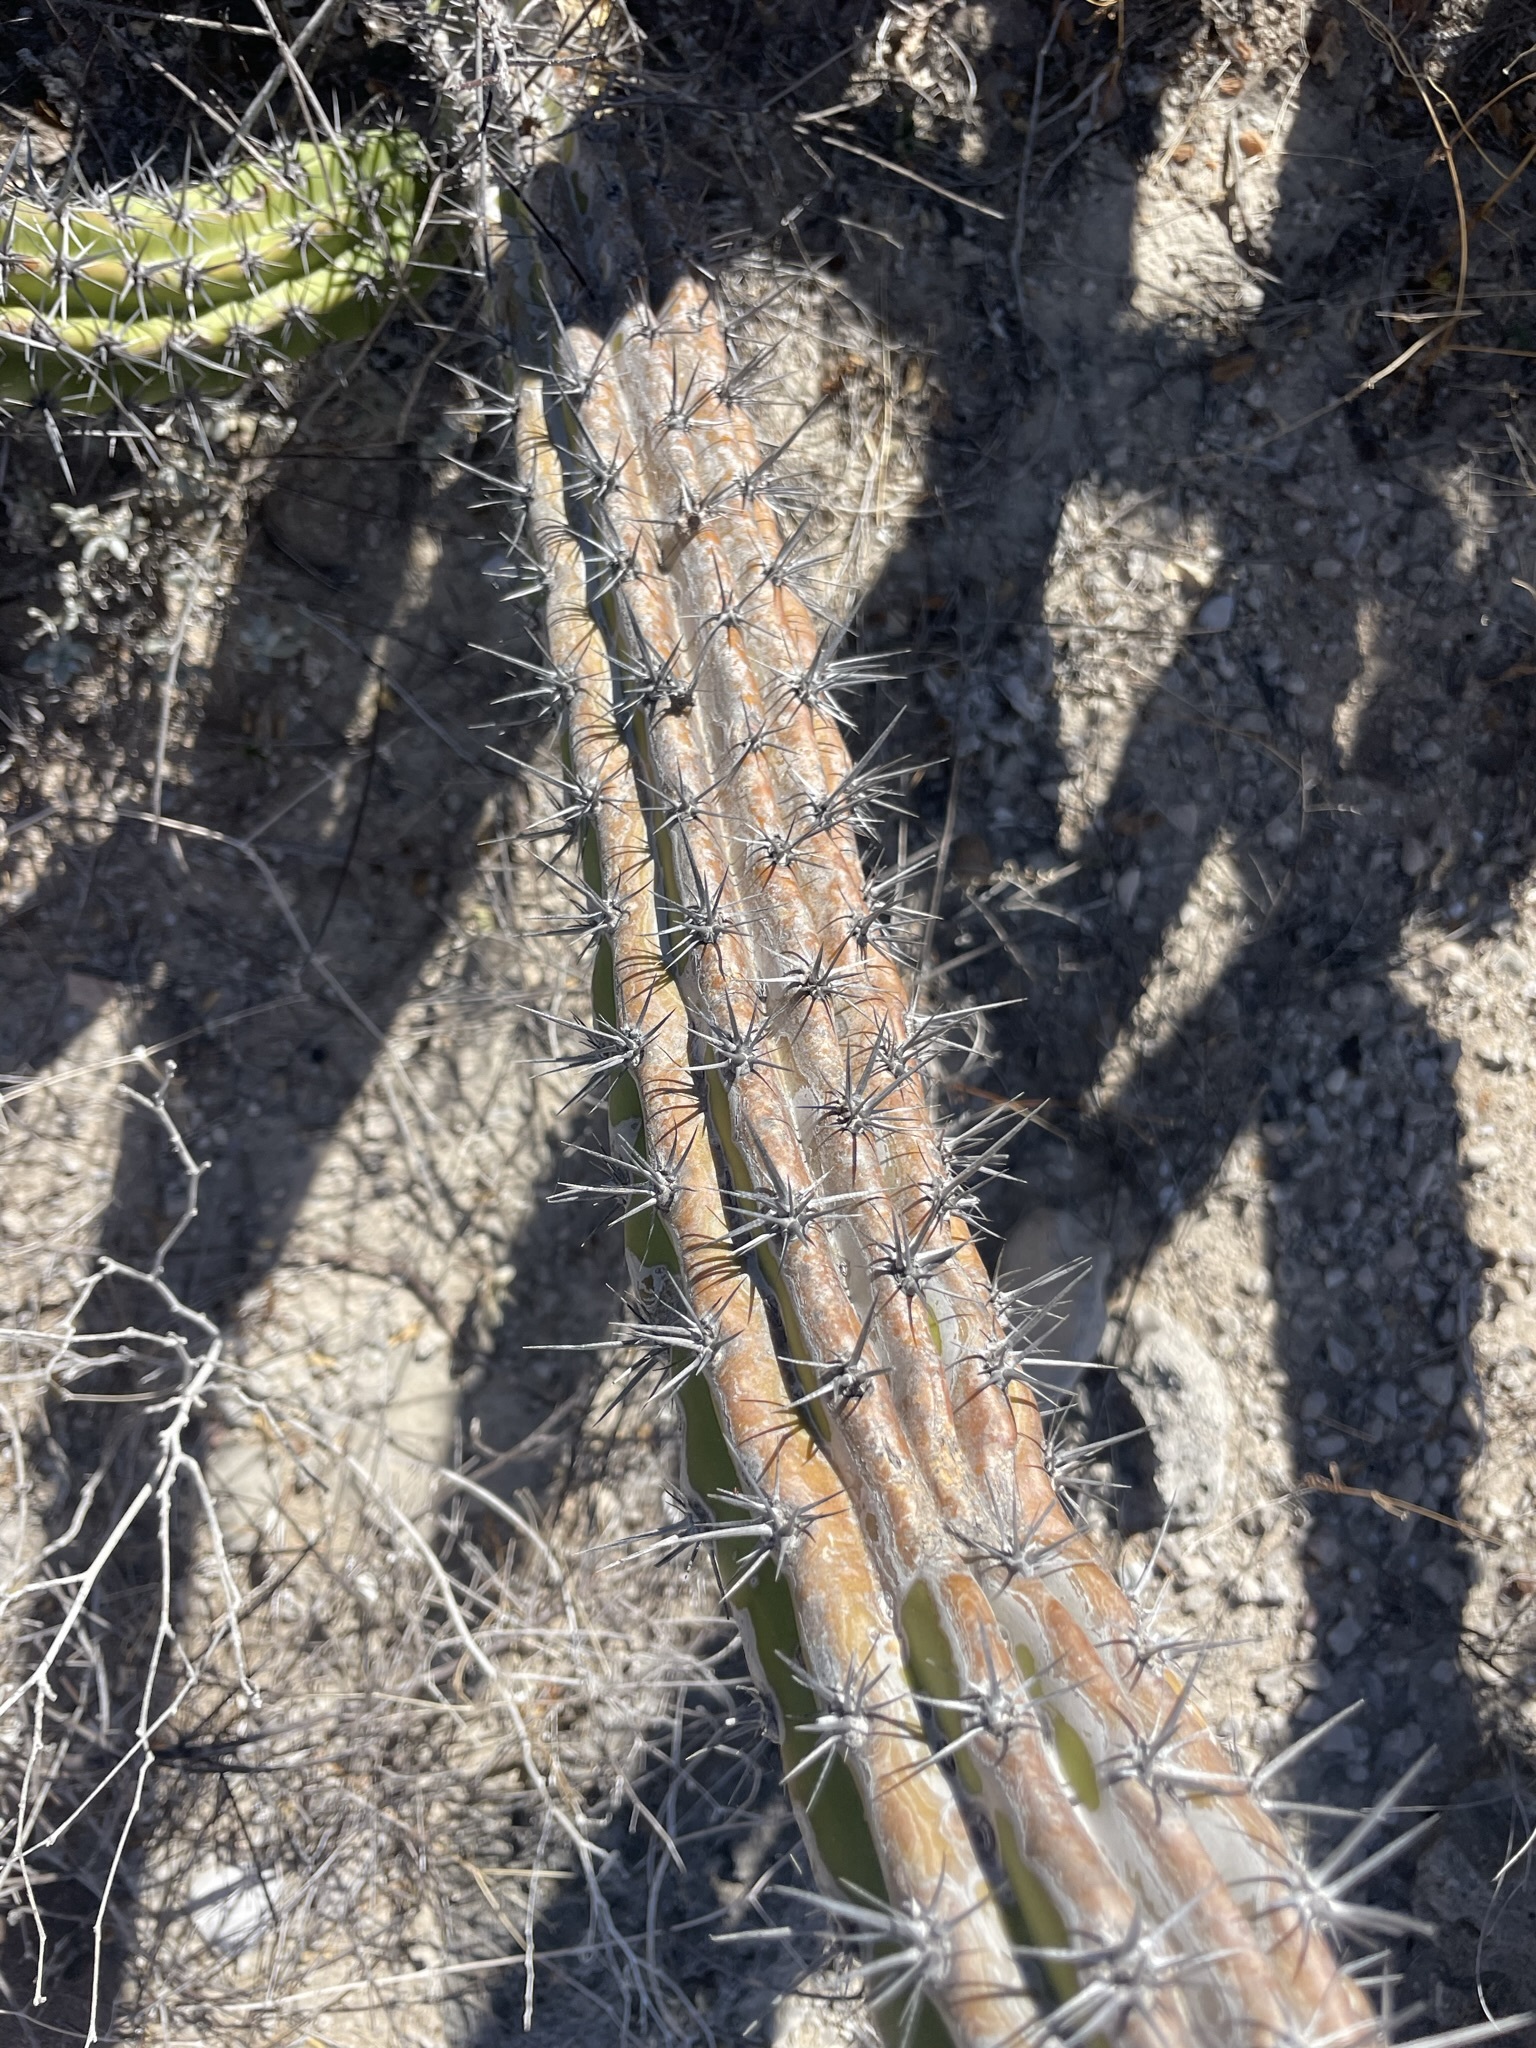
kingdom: Plantae
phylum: Tracheophyta
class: Magnoliopsida
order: Caryophyllales
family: Cactaceae
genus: Stenocereus
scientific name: Stenocereus gummosus
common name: Dagger cactus
